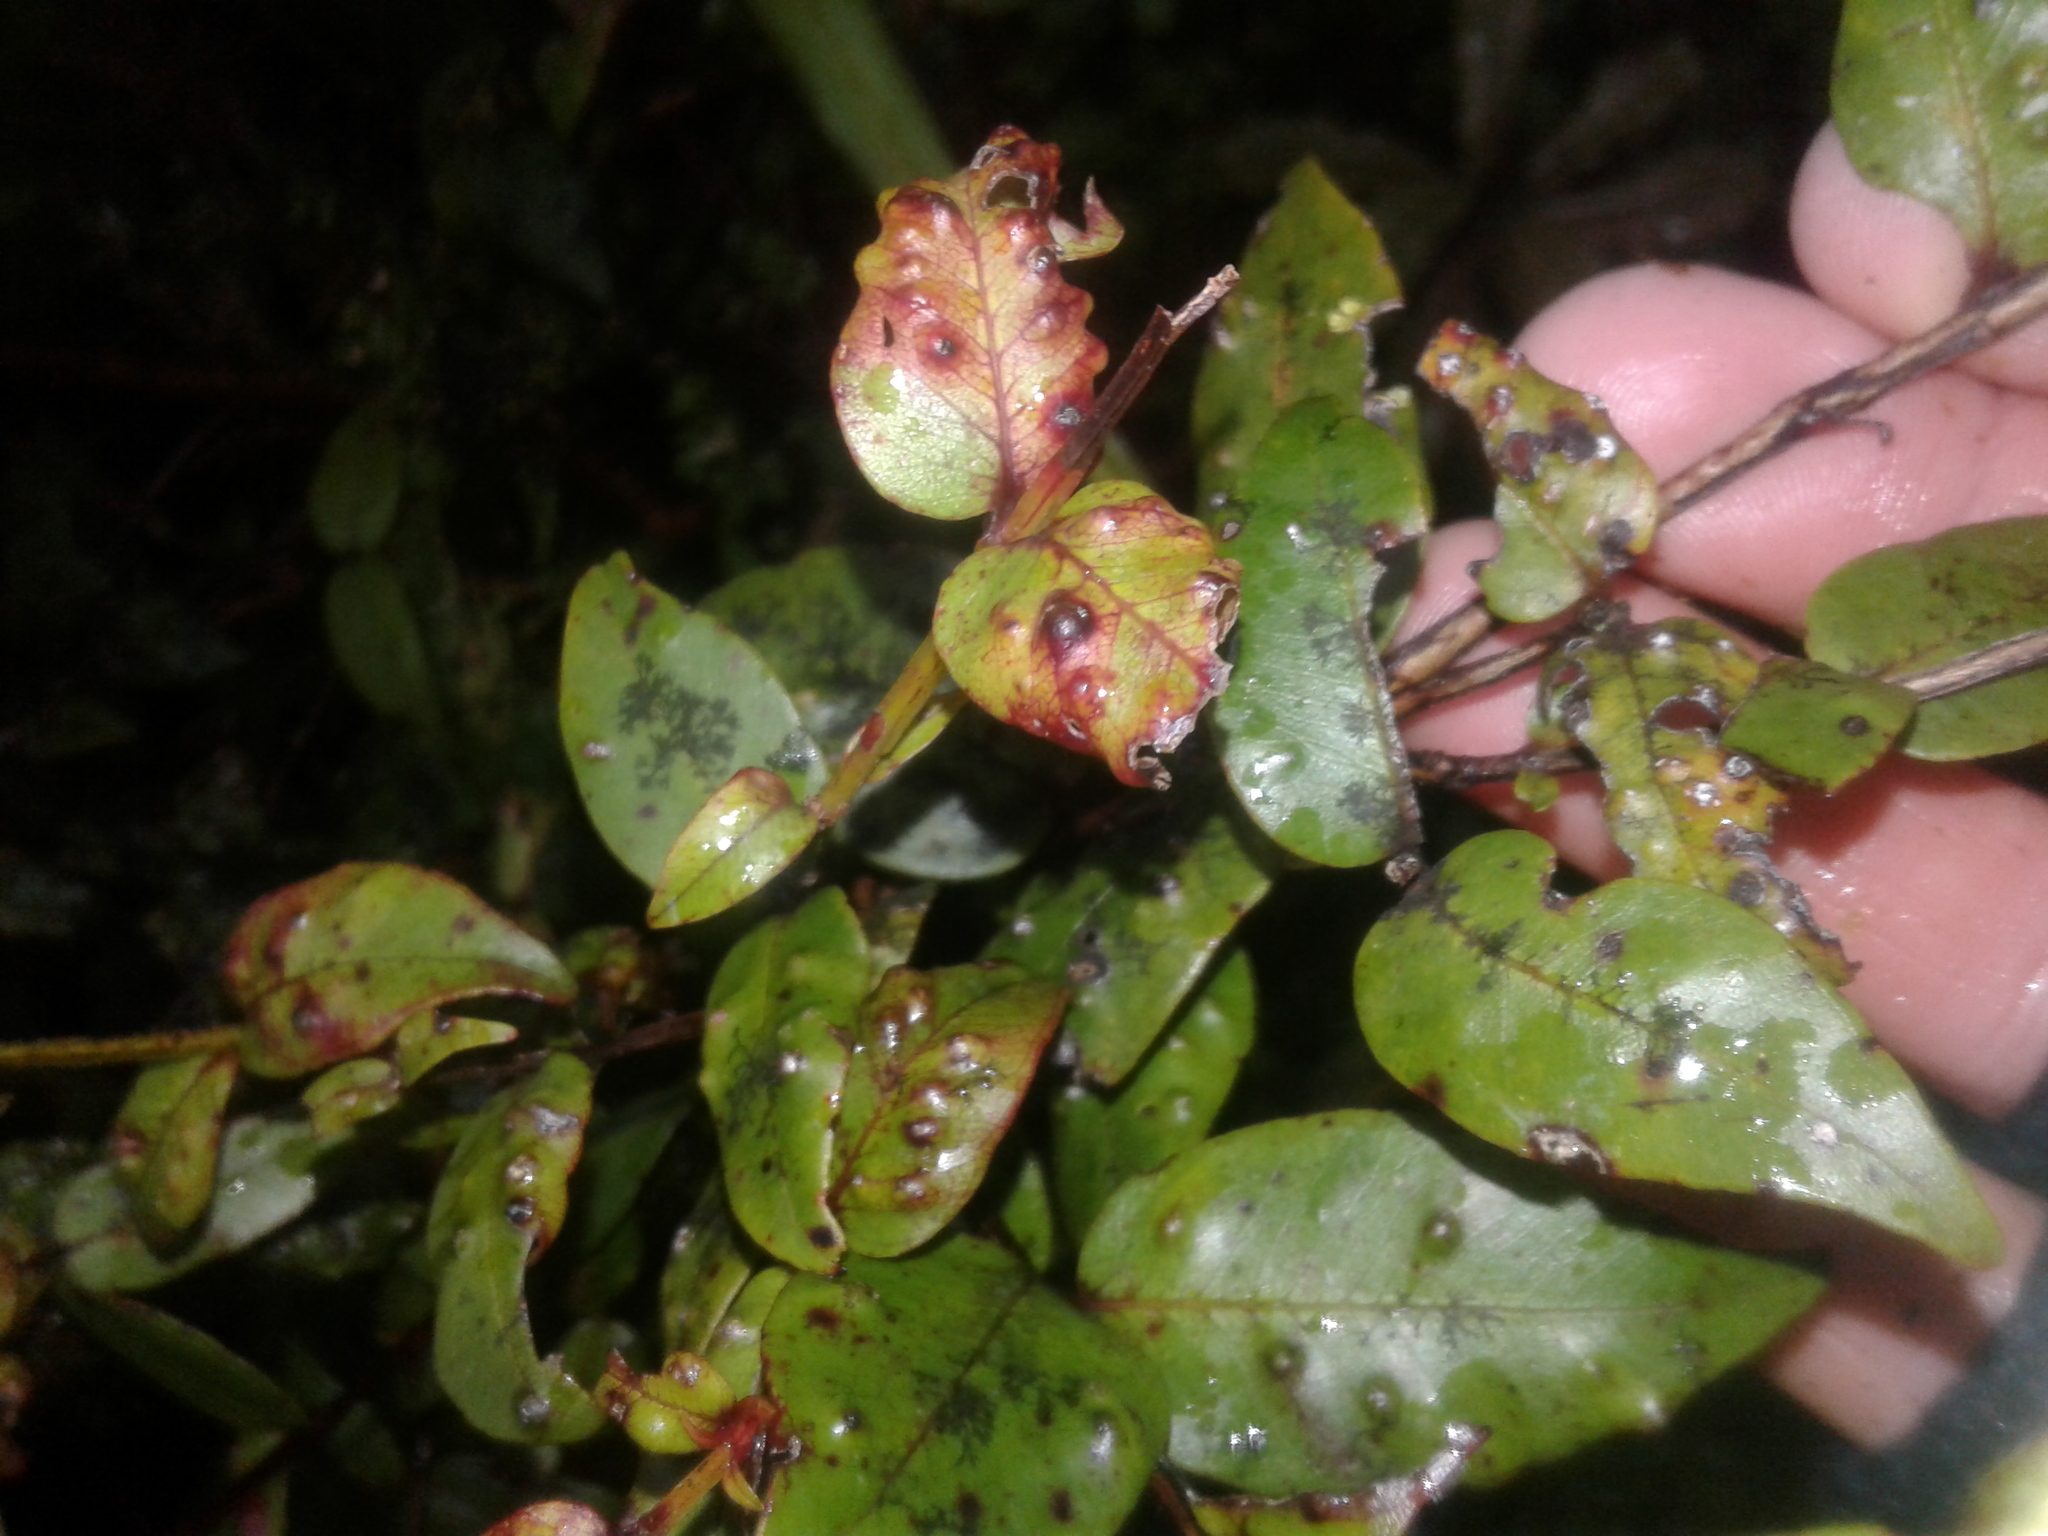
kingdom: Plantae
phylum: Tracheophyta
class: Magnoliopsida
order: Myrtales
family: Myrtaceae
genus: Metrosideros
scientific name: Metrosideros parkinsonii
